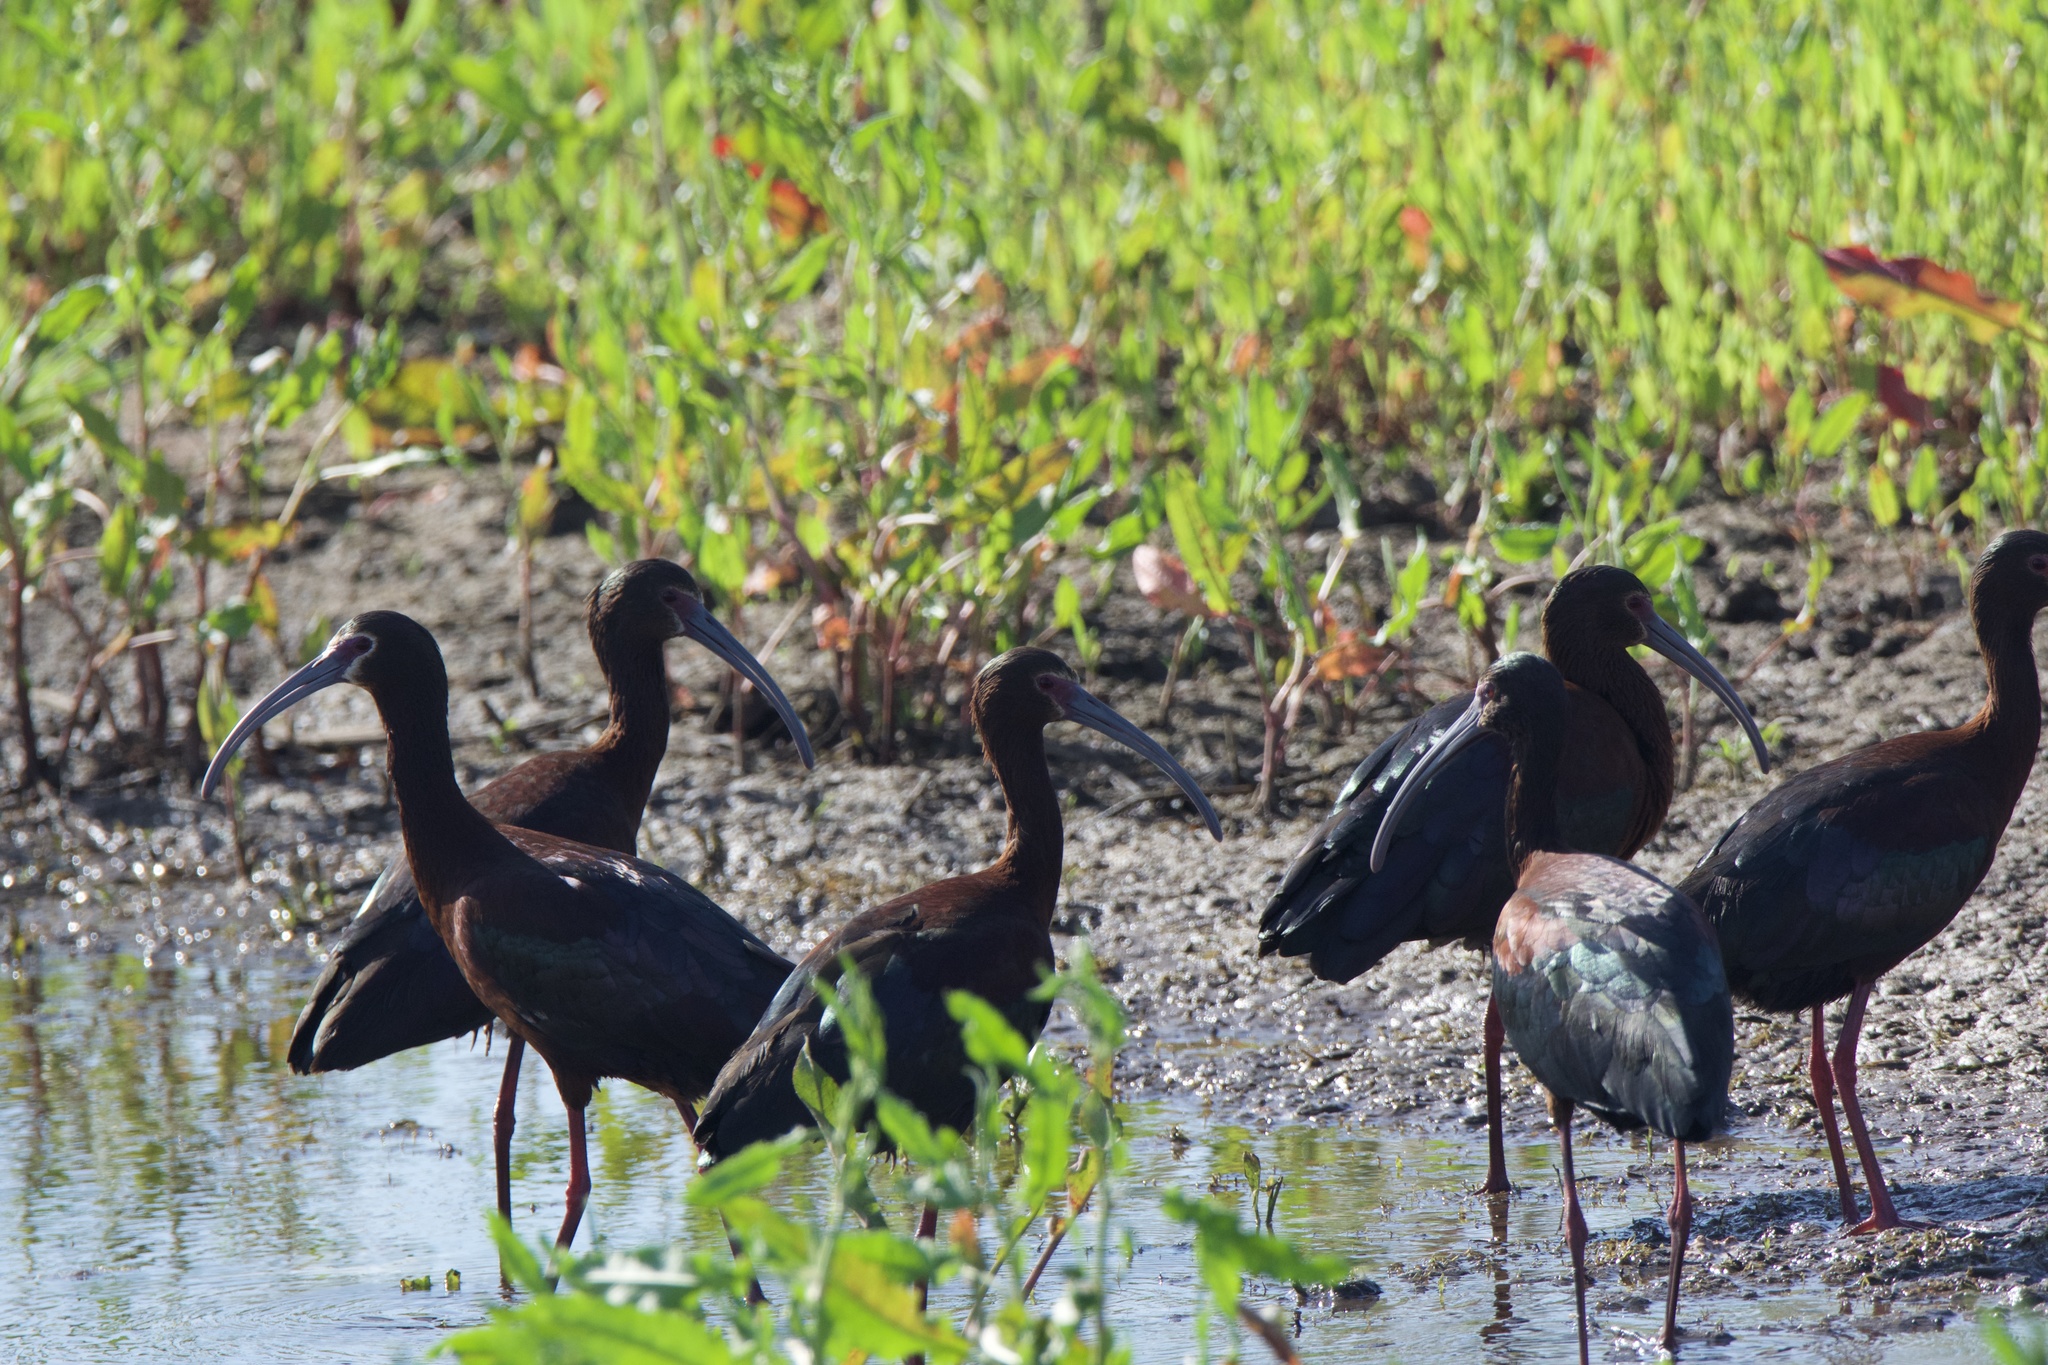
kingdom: Animalia
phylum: Chordata
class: Aves
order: Pelecaniformes
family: Threskiornithidae
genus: Plegadis
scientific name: Plegadis chihi
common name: White-faced ibis
